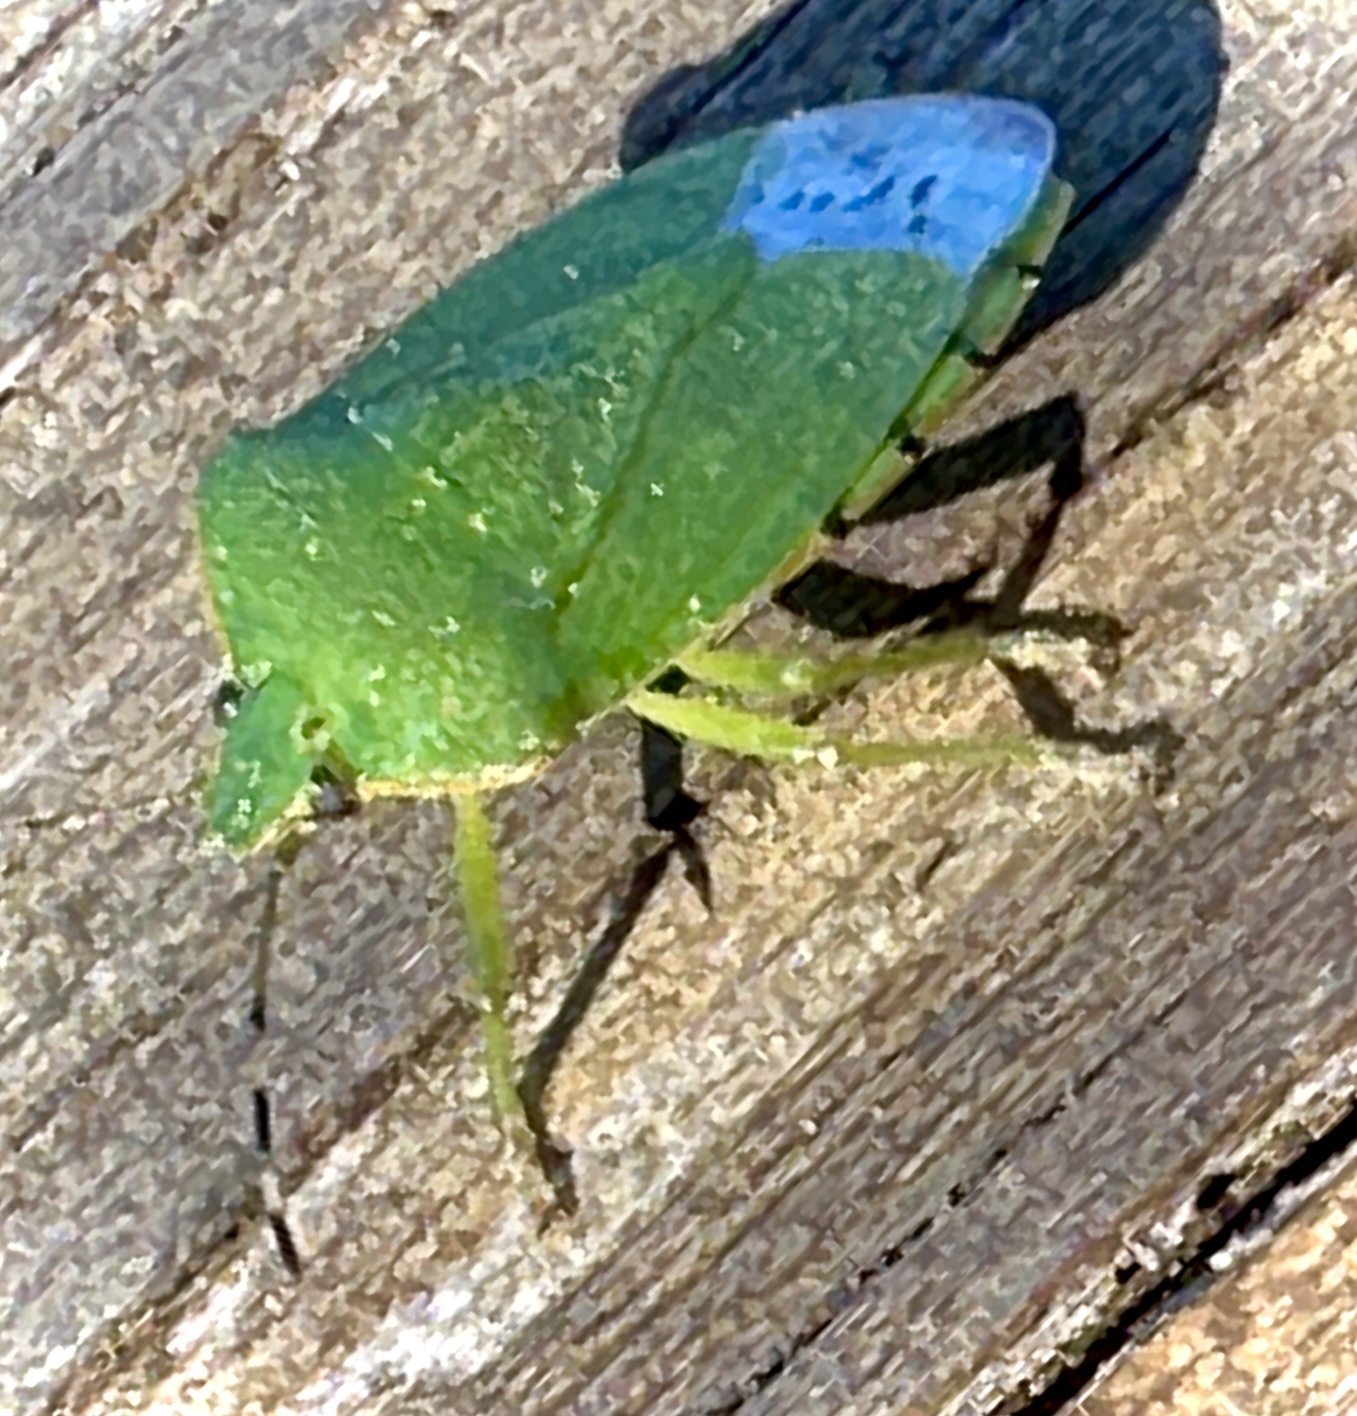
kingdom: Animalia
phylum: Arthropoda
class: Insecta
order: Hemiptera
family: Pentatomidae
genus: Chinavia
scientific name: Chinavia hilaris
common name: Green stink bug
